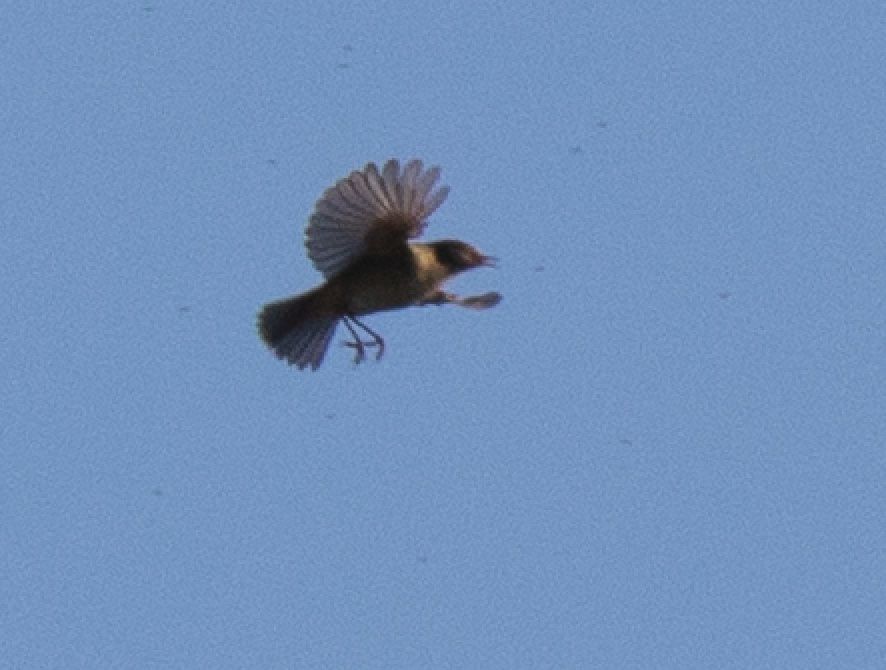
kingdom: Animalia
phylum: Chordata
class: Aves
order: Passeriformes
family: Phylloscopidae
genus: Phylloscopus
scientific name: Phylloscopus collybita
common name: Common chiffchaff
